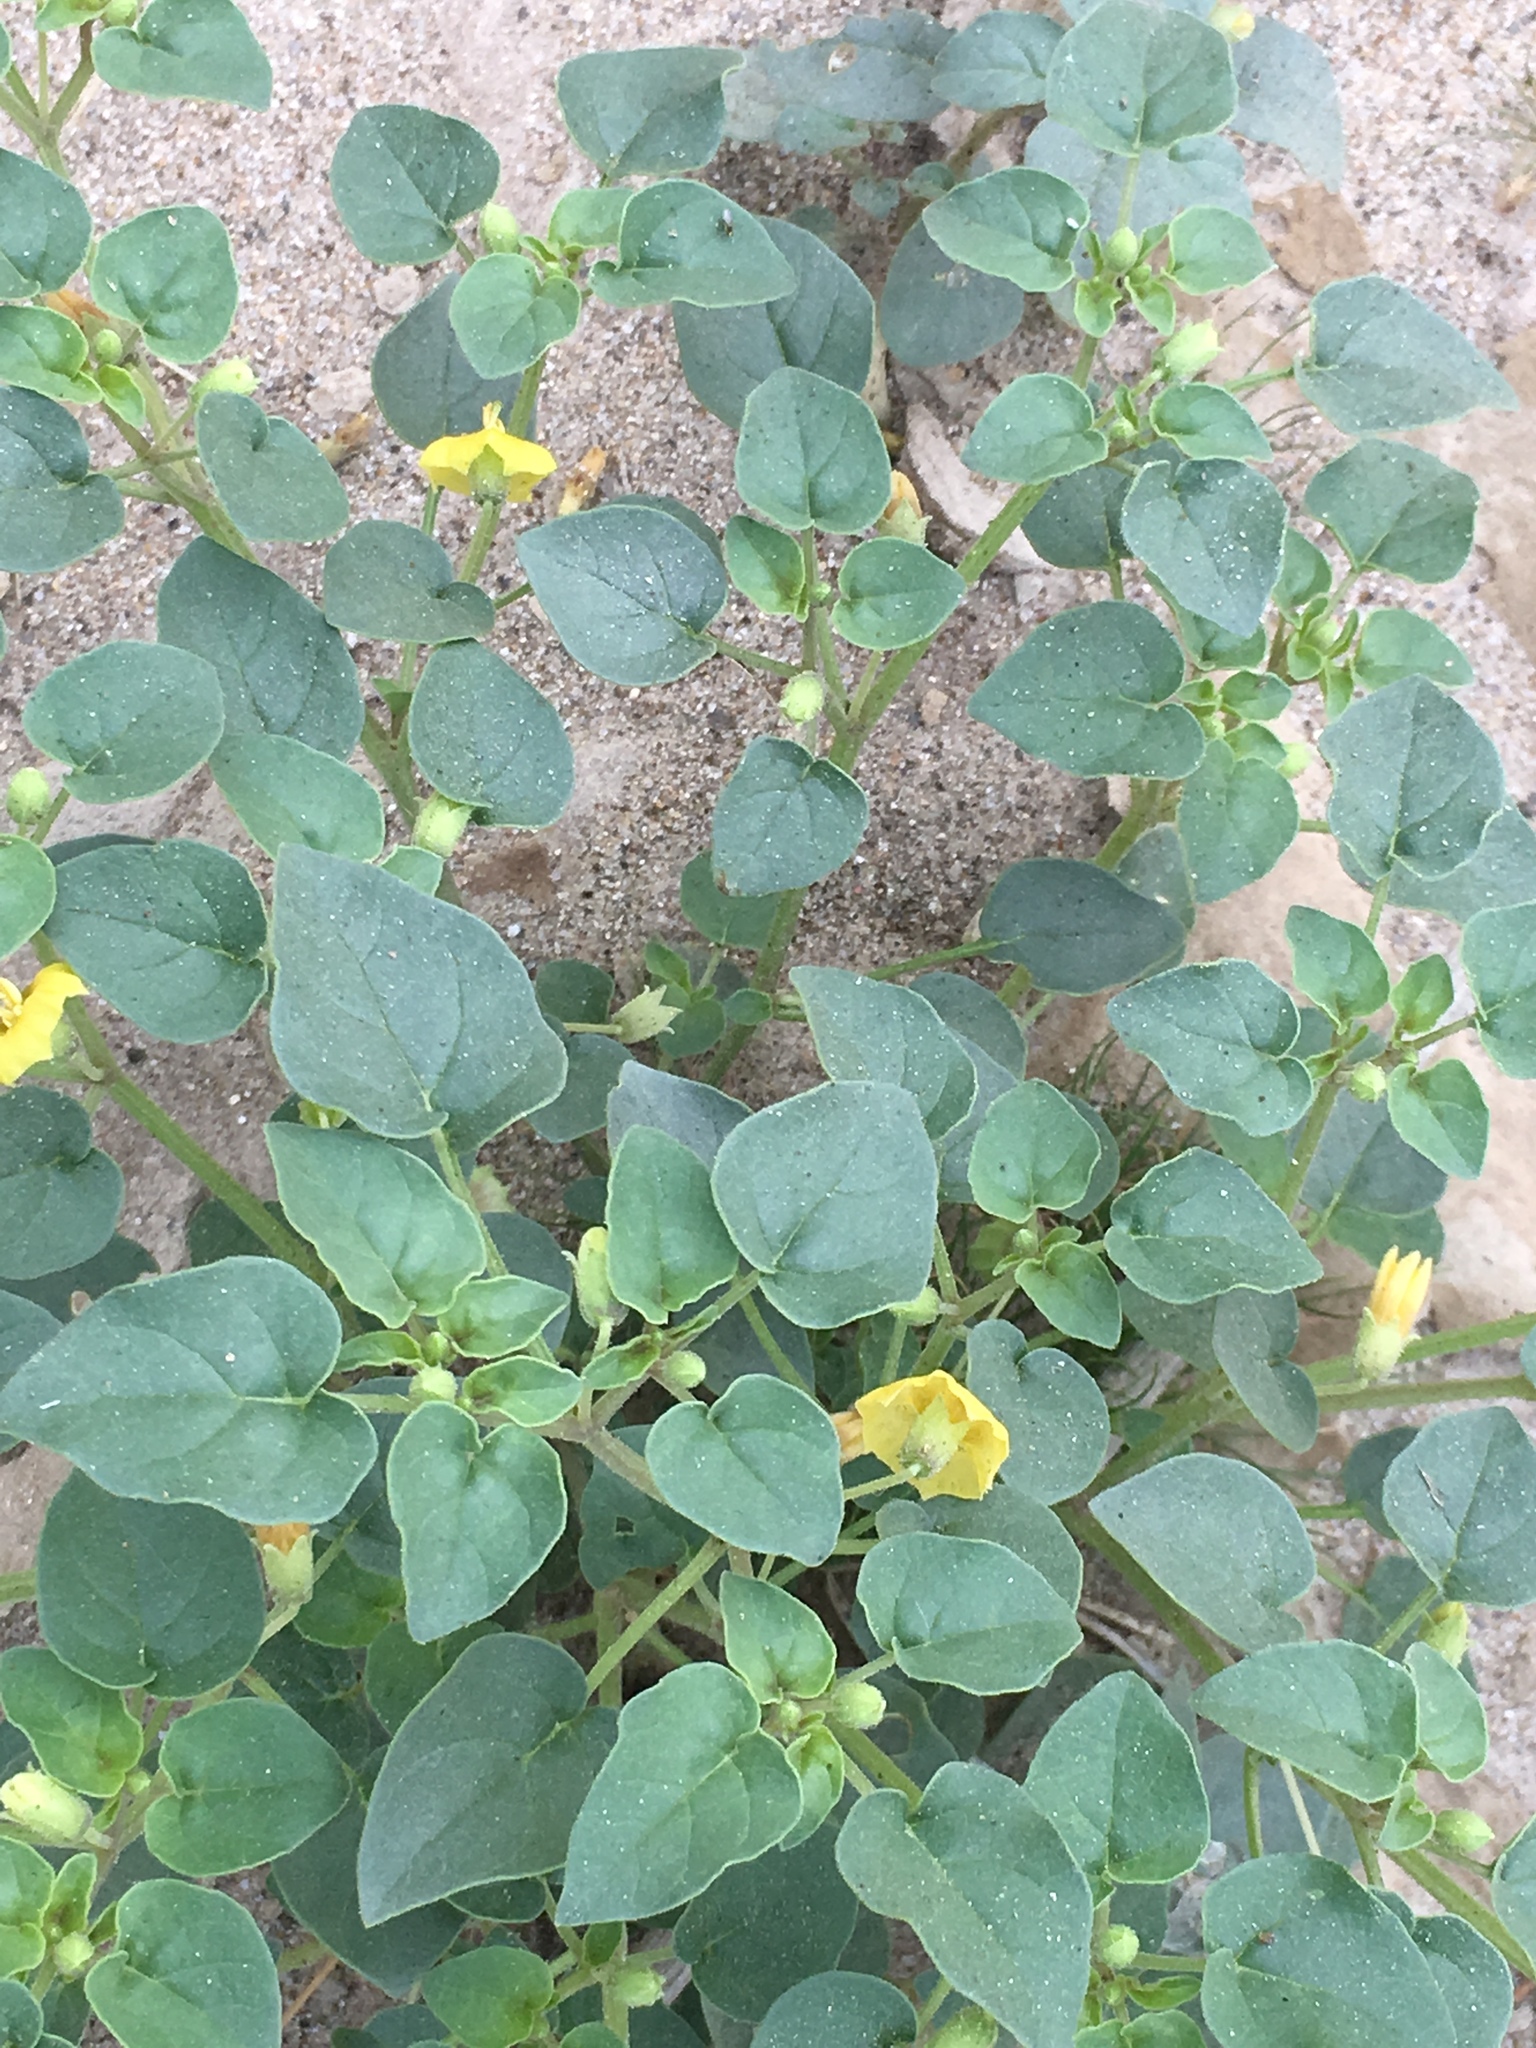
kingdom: Plantae
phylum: Tracheophyta
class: Magnoliopsida
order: Solanales
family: Solanaceae
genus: Physalis
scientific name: Physalis crassifolia
